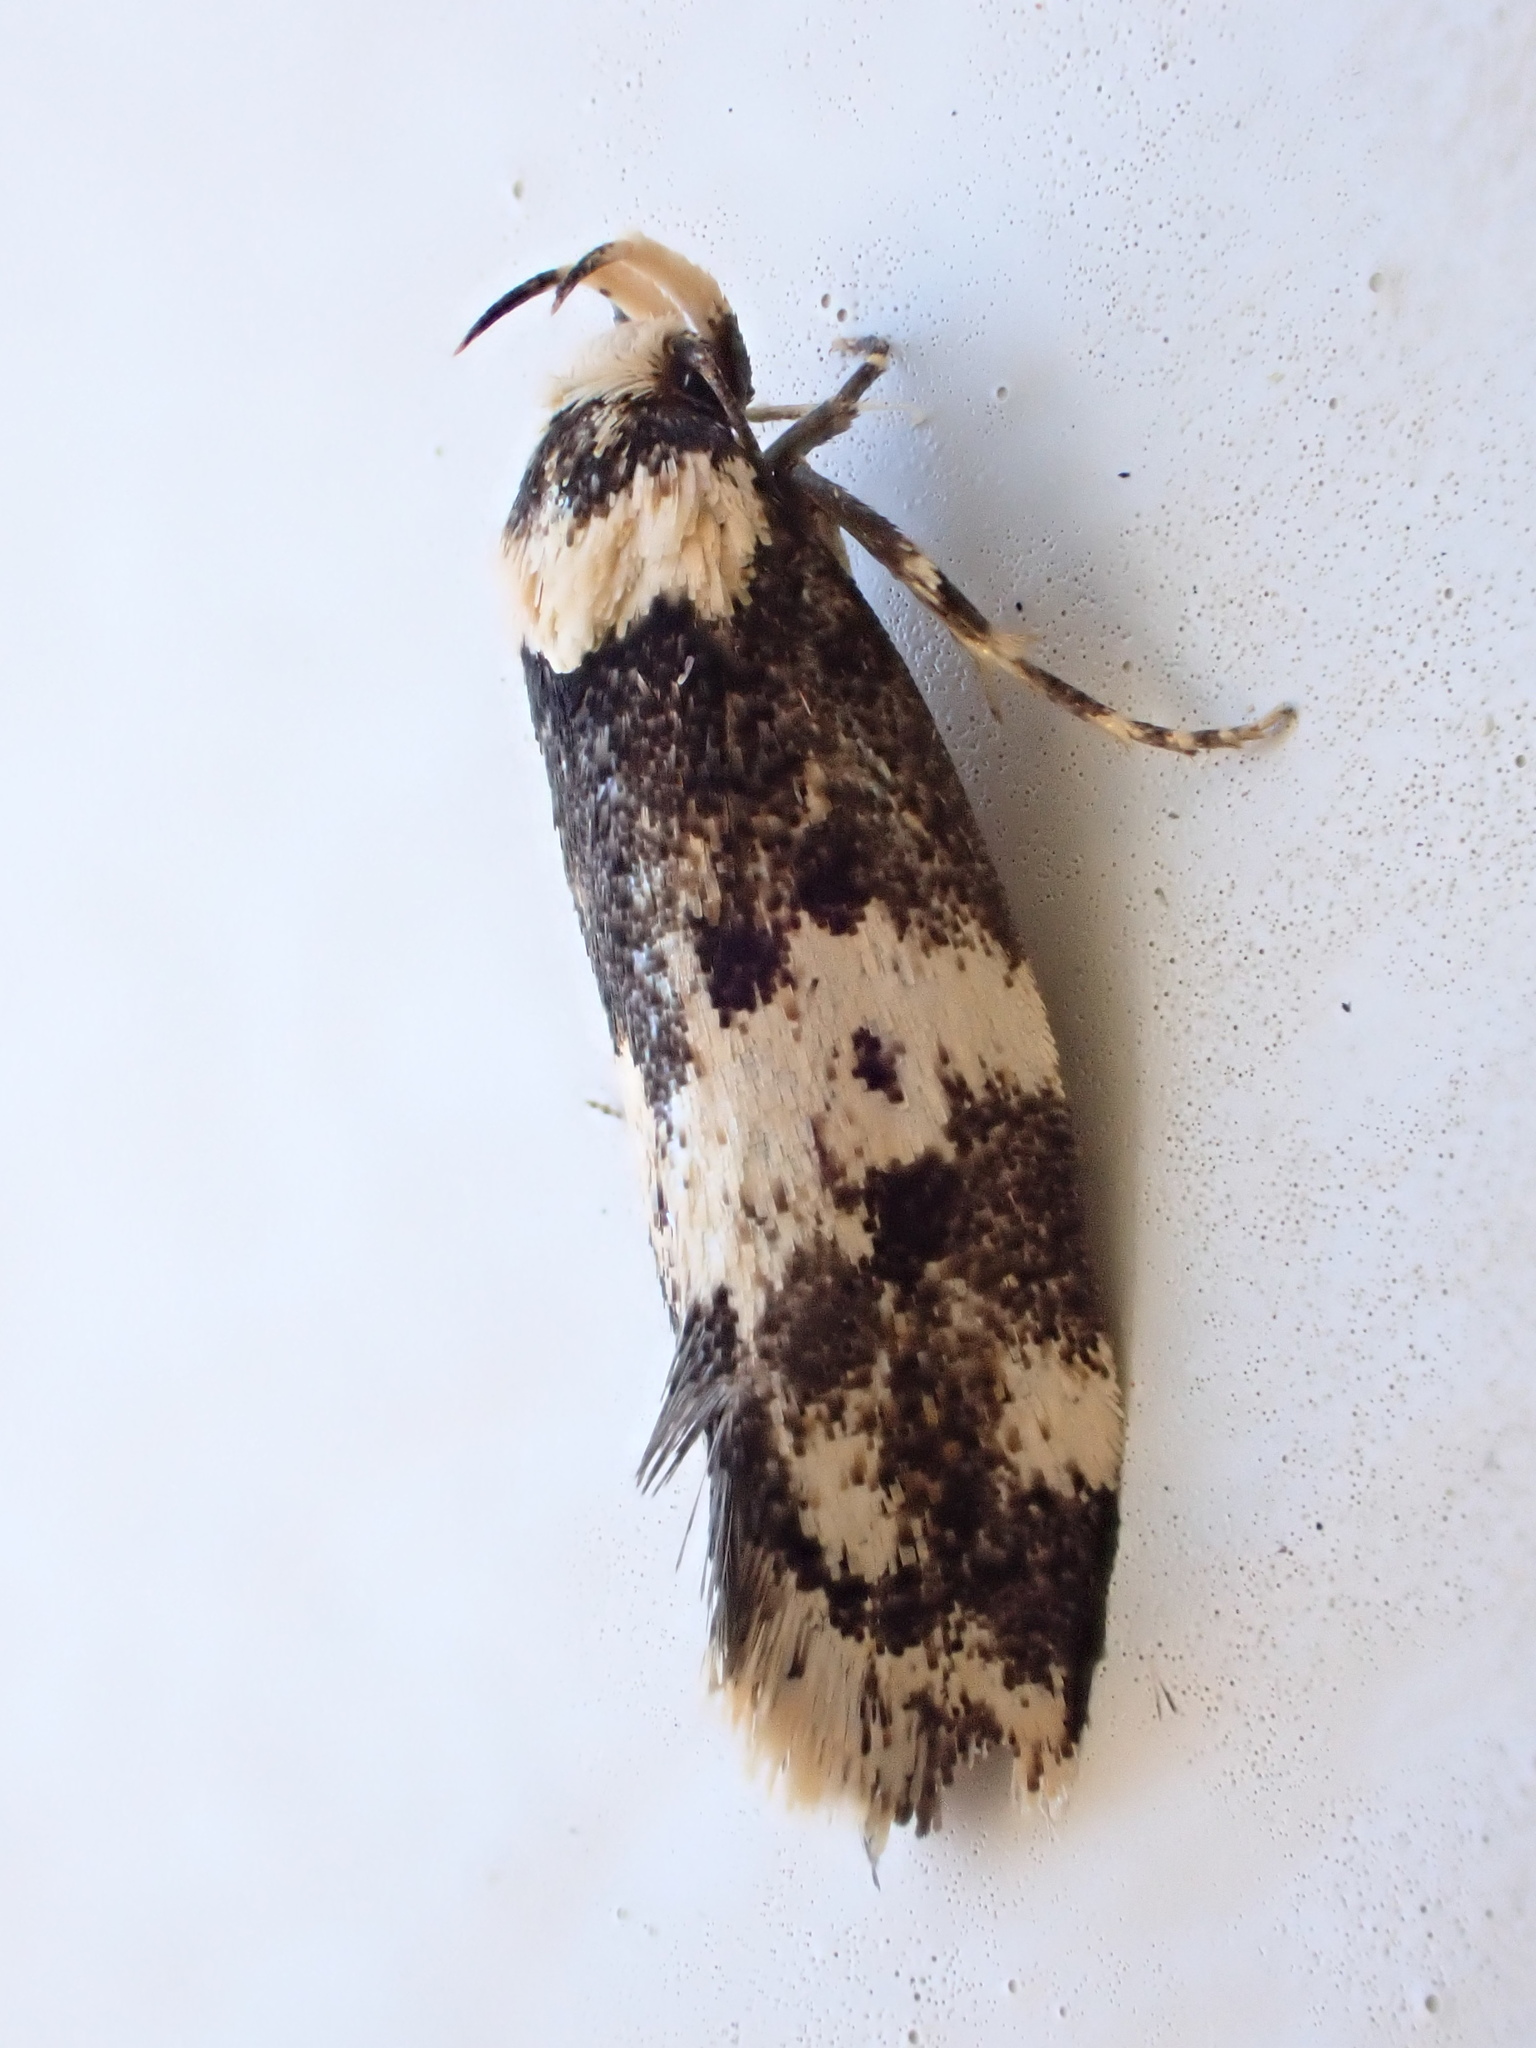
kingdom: Animalia
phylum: Arthropoda
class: Insecta
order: Lepidoptera
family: Oecophoridae
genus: Sphyrelata
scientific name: Sphyrelata amotella
